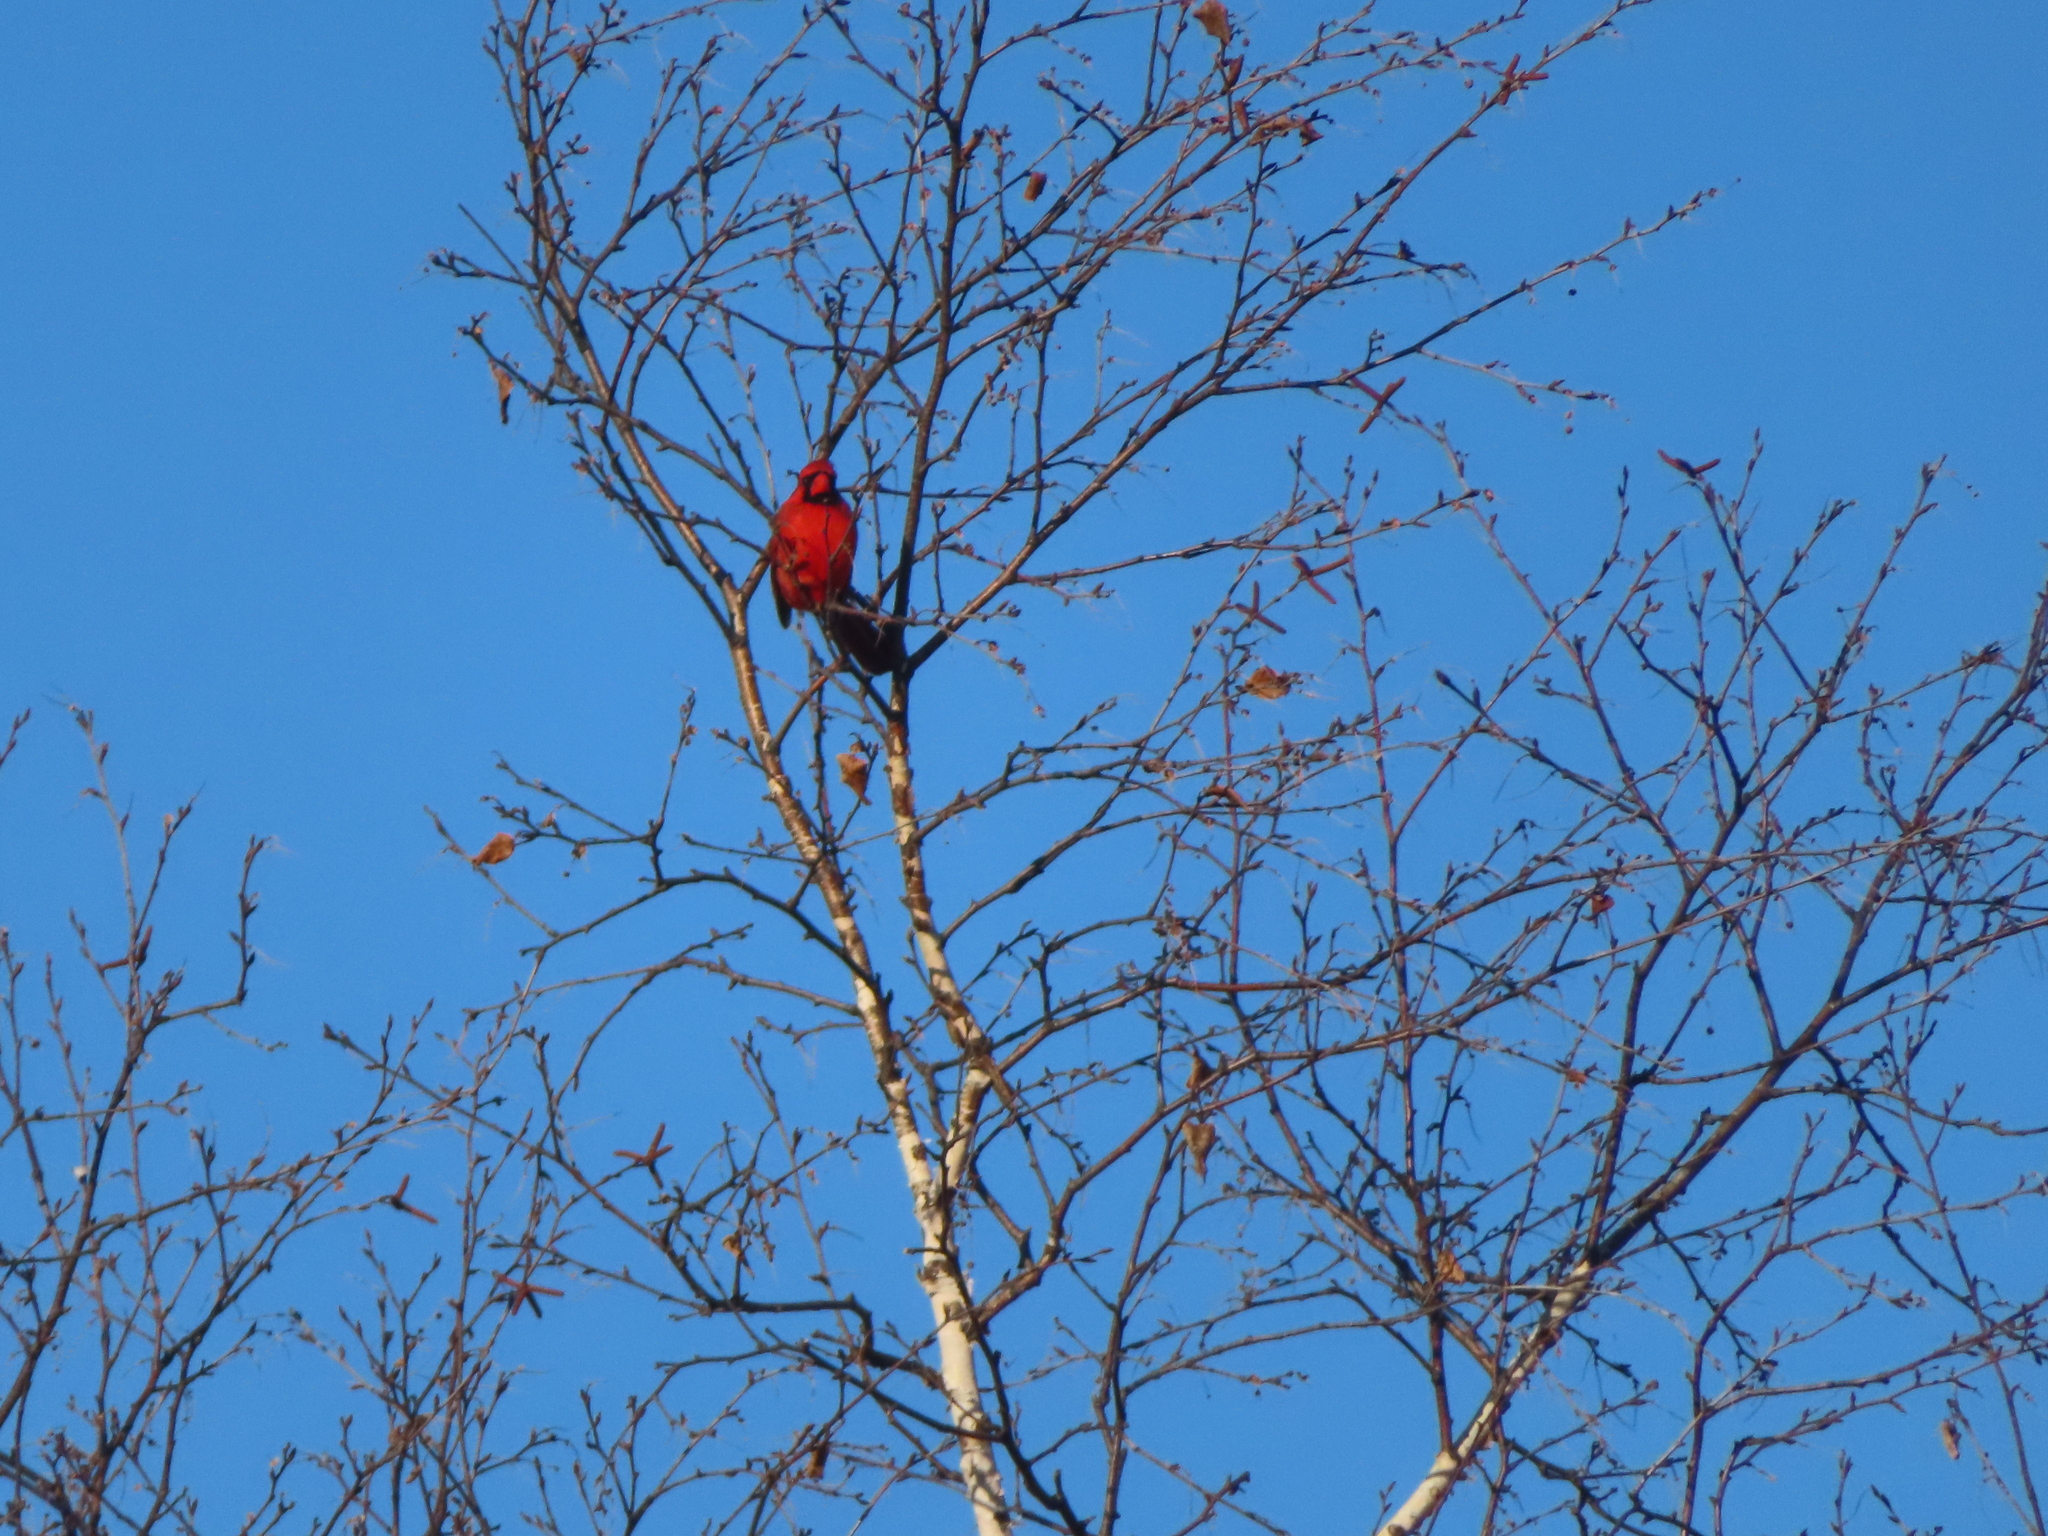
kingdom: Animalia
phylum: Chordata
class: Aves
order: Passeriformes
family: Cardinalidae
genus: Cardinalis
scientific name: Cardinalis cardinalis
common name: Northern cardinal
